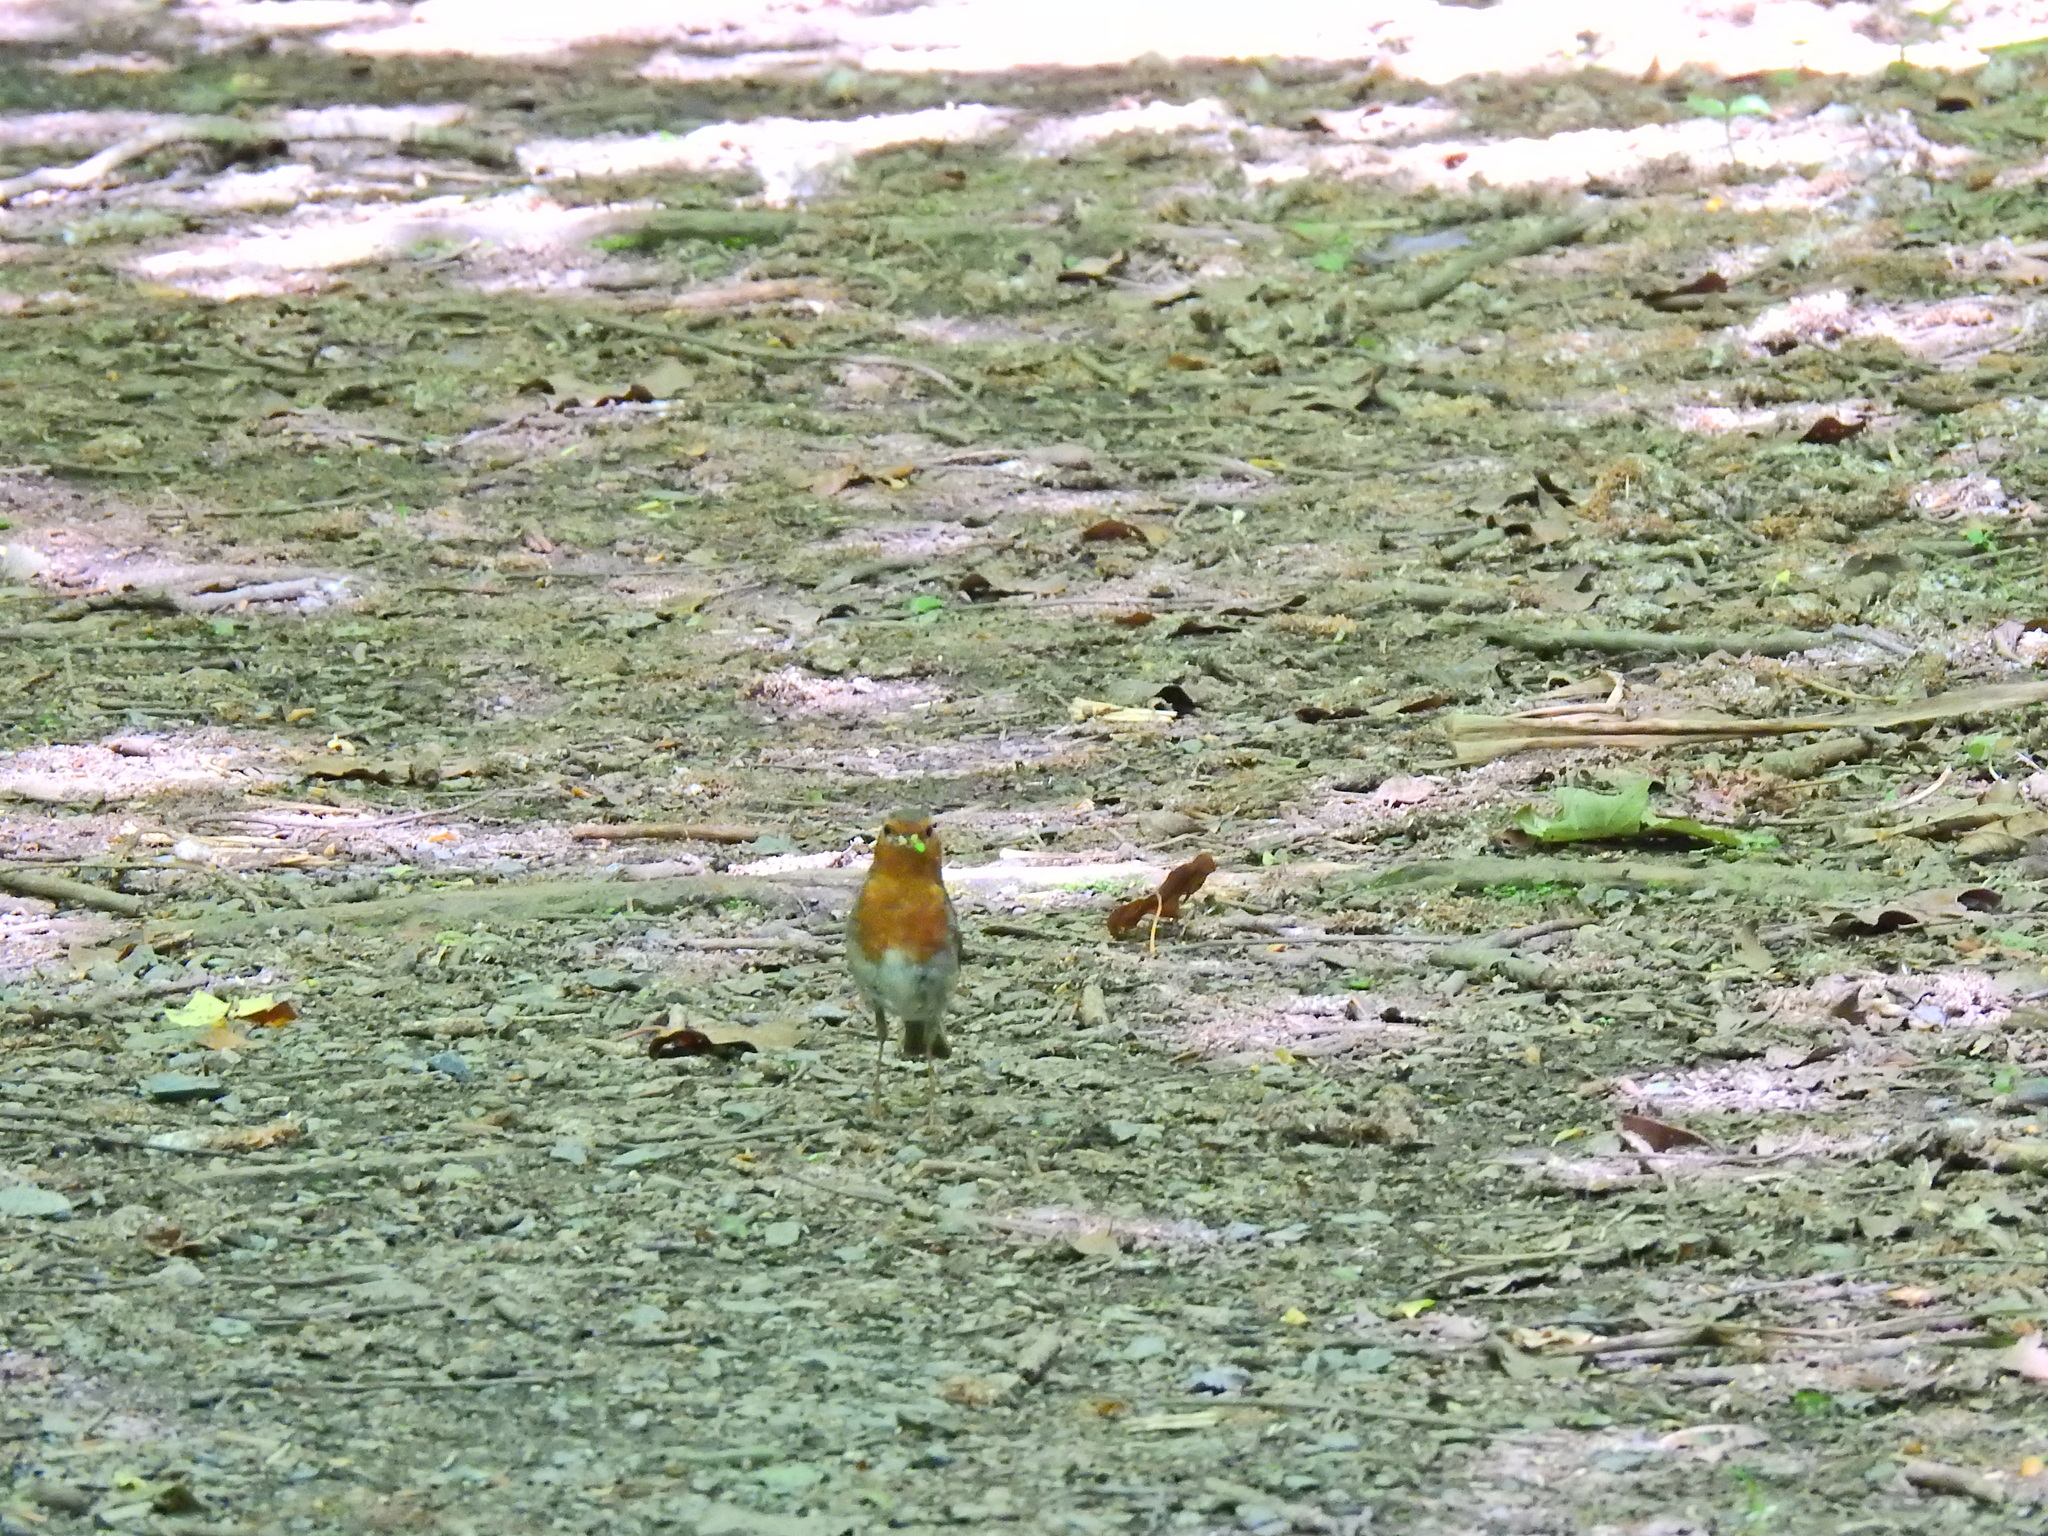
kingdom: Animalia
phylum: Chordata
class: Aves
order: Passeriformes
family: Muscicapidae
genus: Erithacus
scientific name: Erithacus rubecula
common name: European robin
